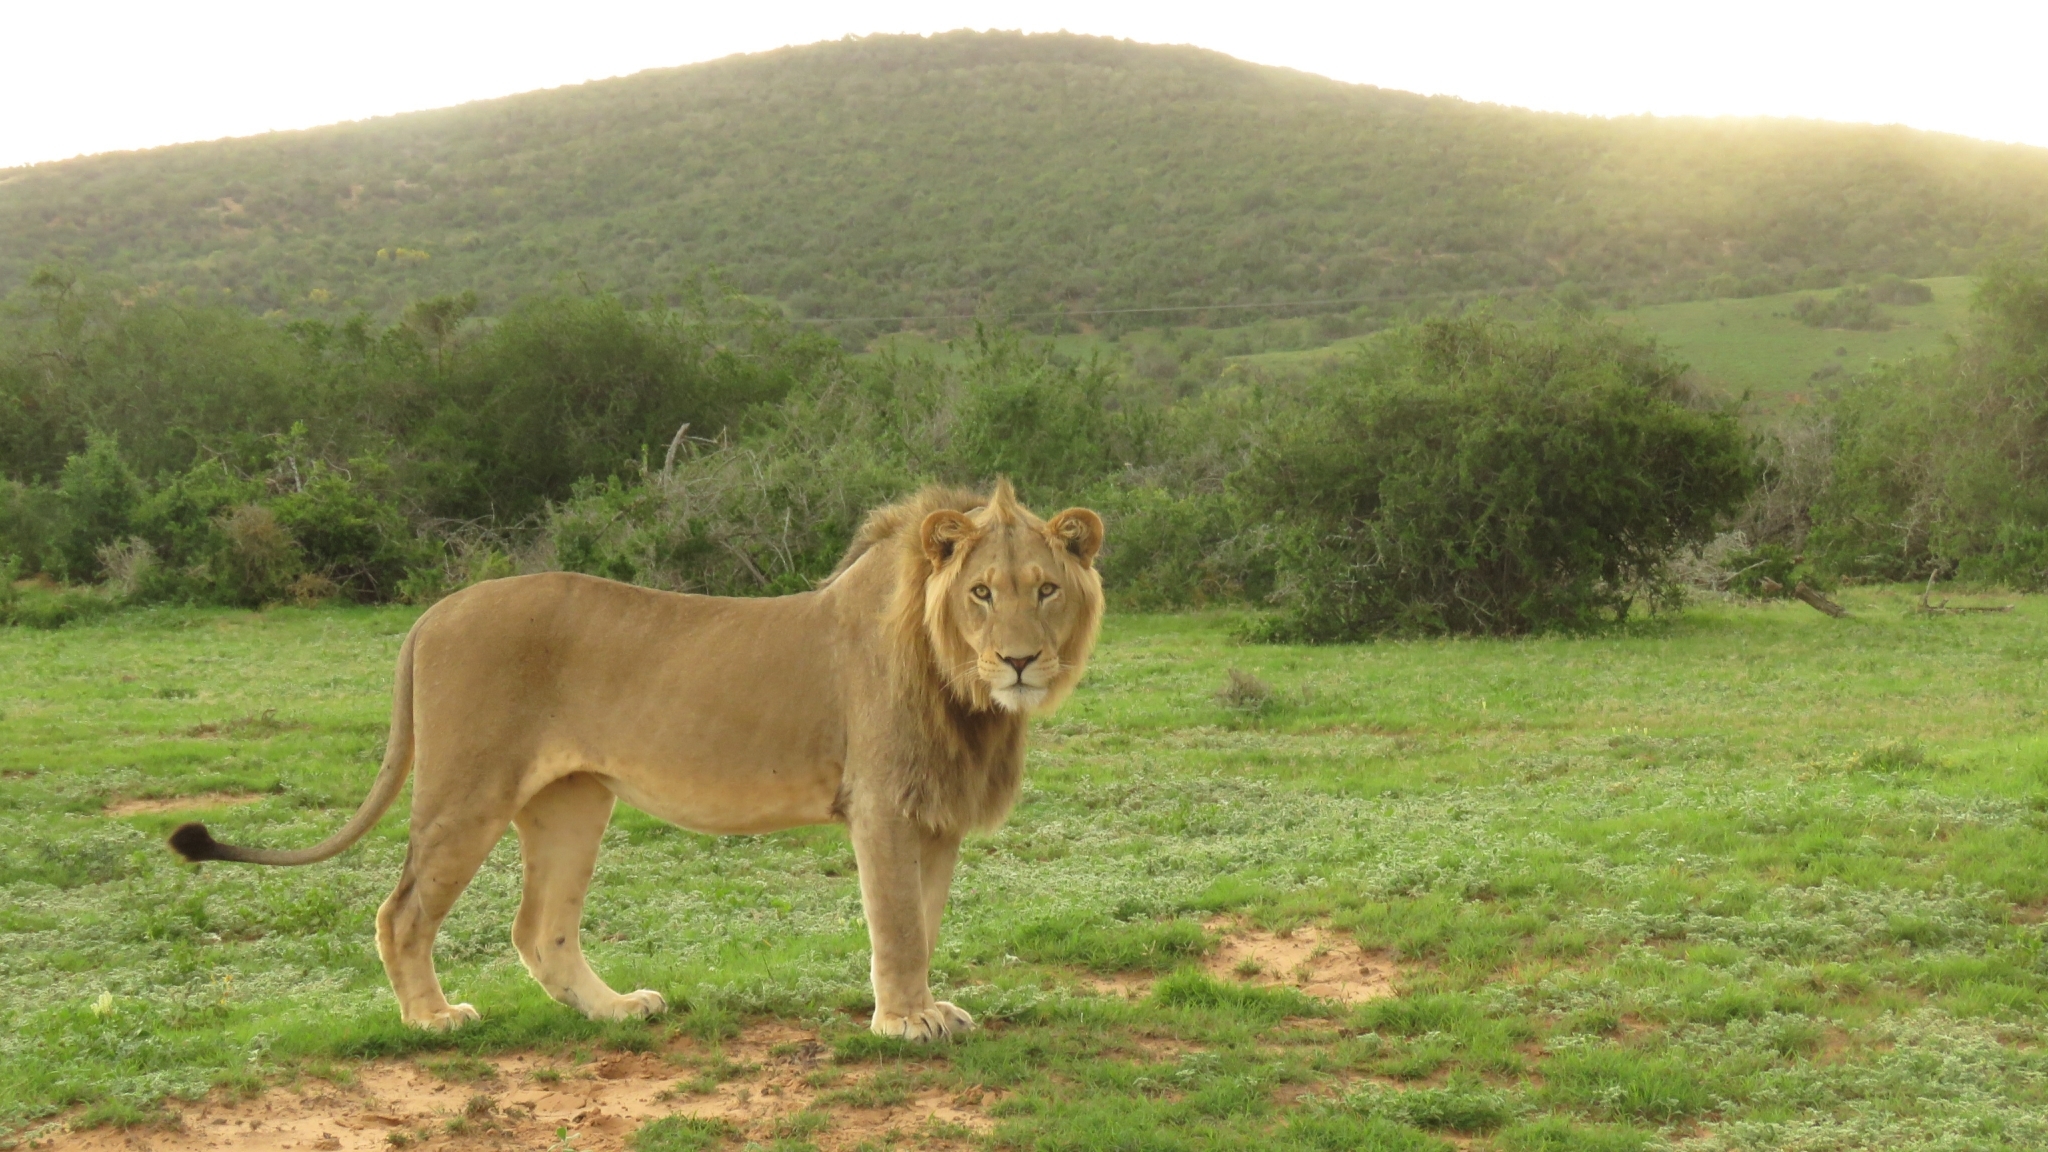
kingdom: Animalia
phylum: Chordata
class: Mammalia
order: Carnivora
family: Felidae
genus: Panthera
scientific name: Panthera leo
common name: Lion
